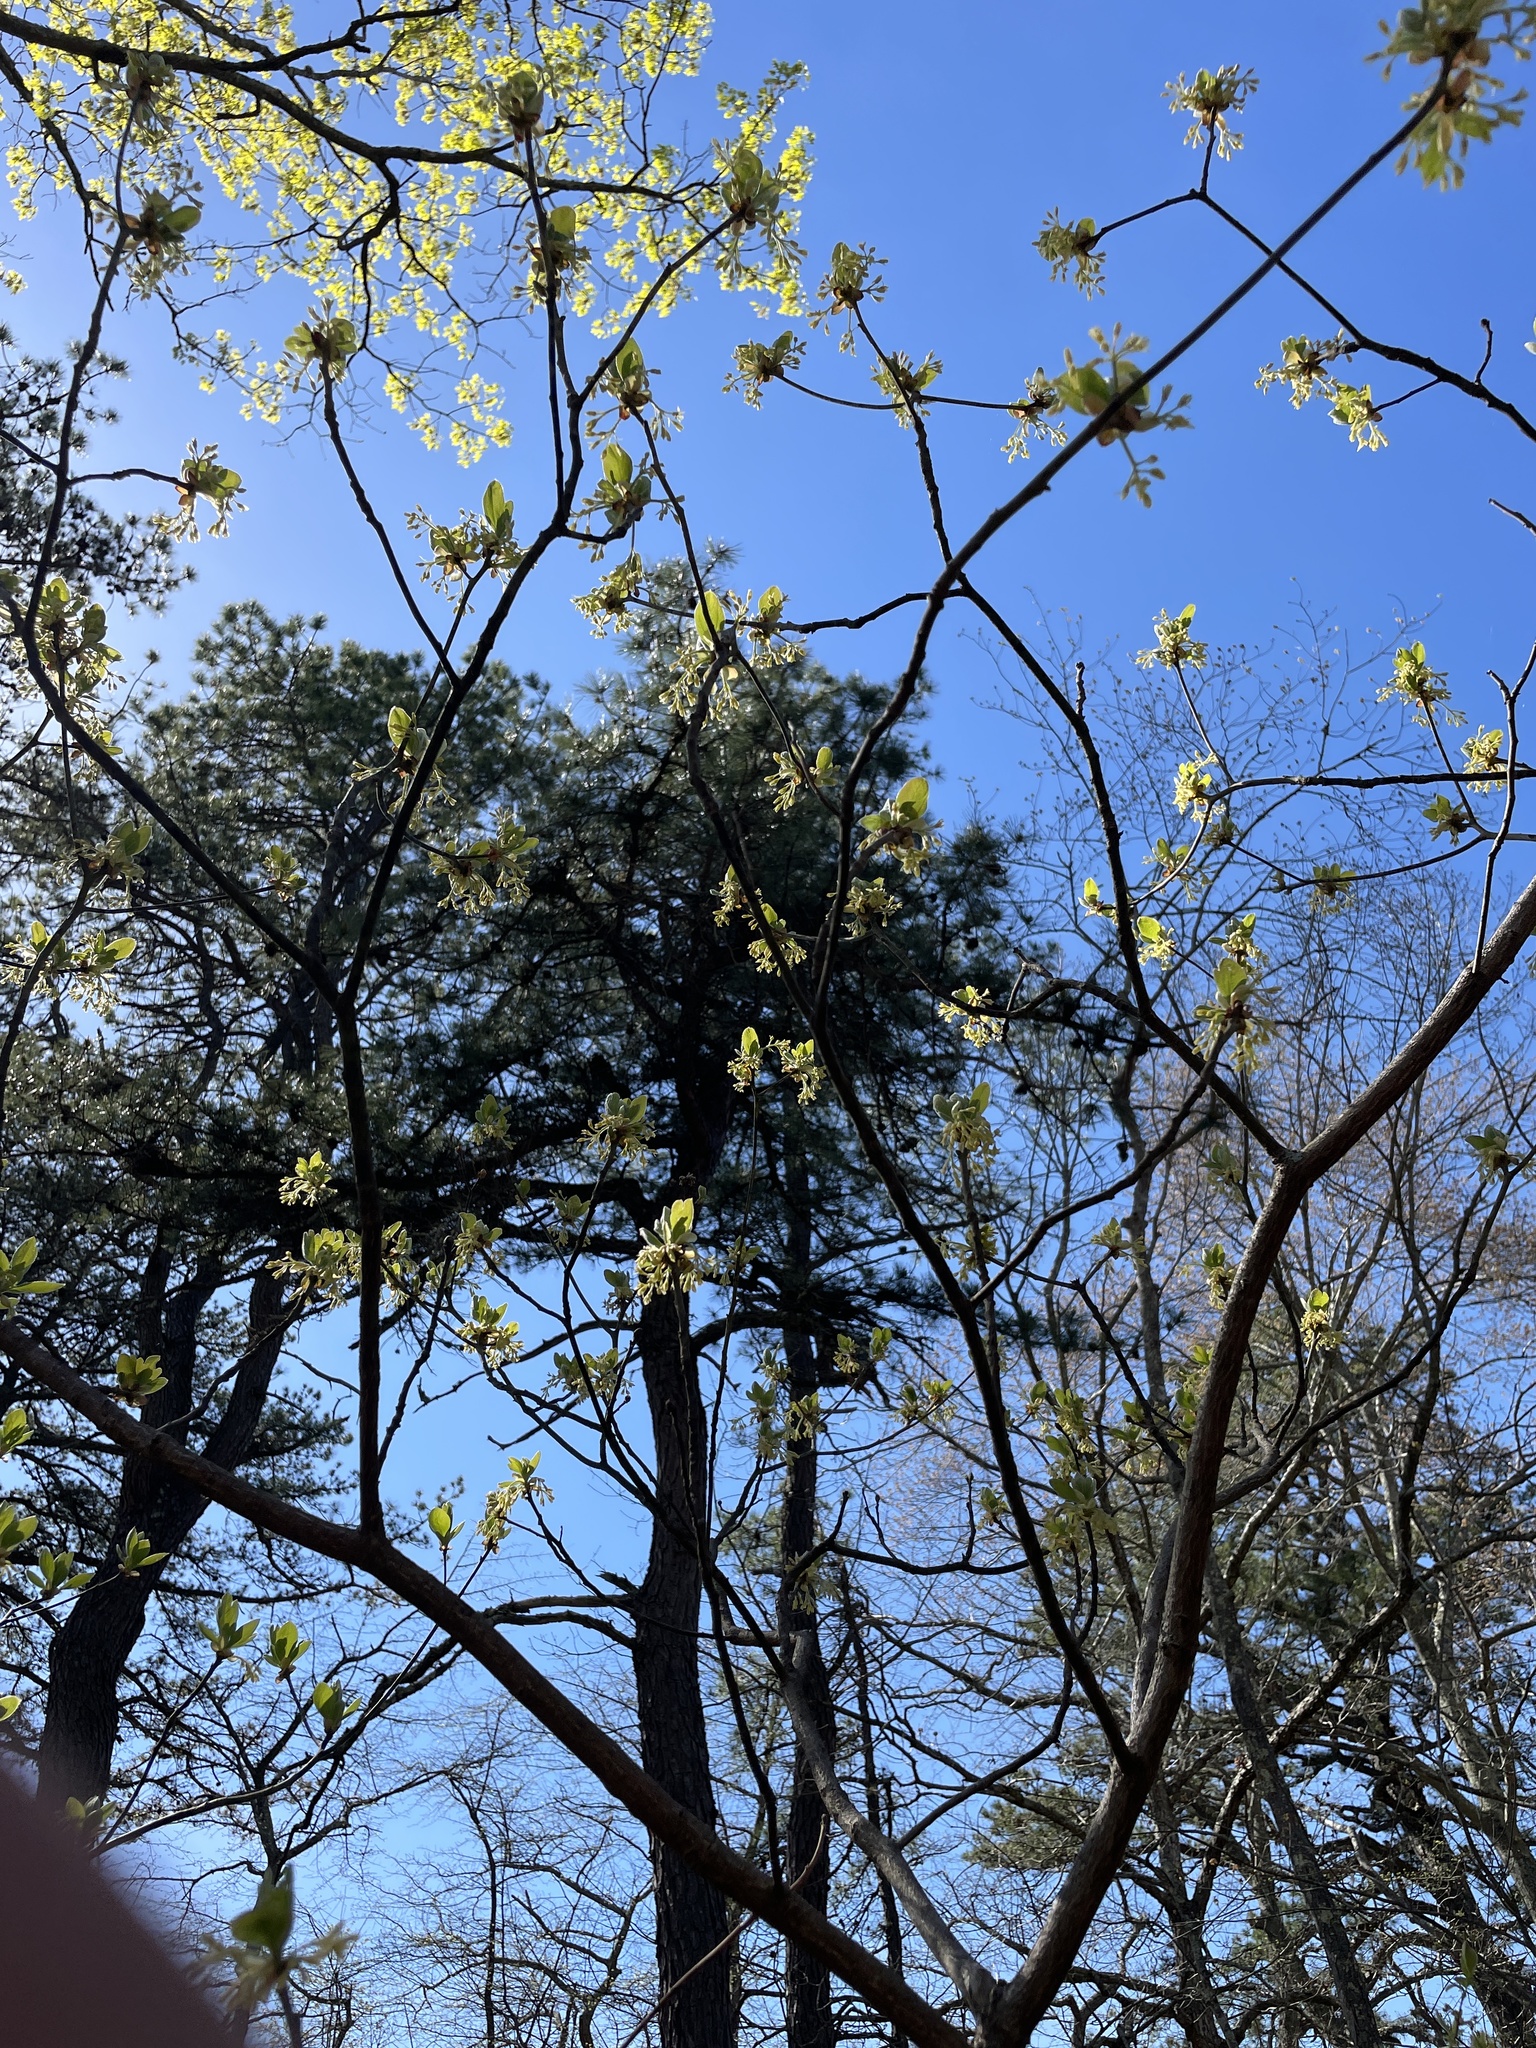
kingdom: Plantae
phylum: Tracheophyta
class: Magnoliopsida
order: Laurales
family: Lauraceae
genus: Sassafras
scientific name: Sassafras albidum
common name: Sassafras
